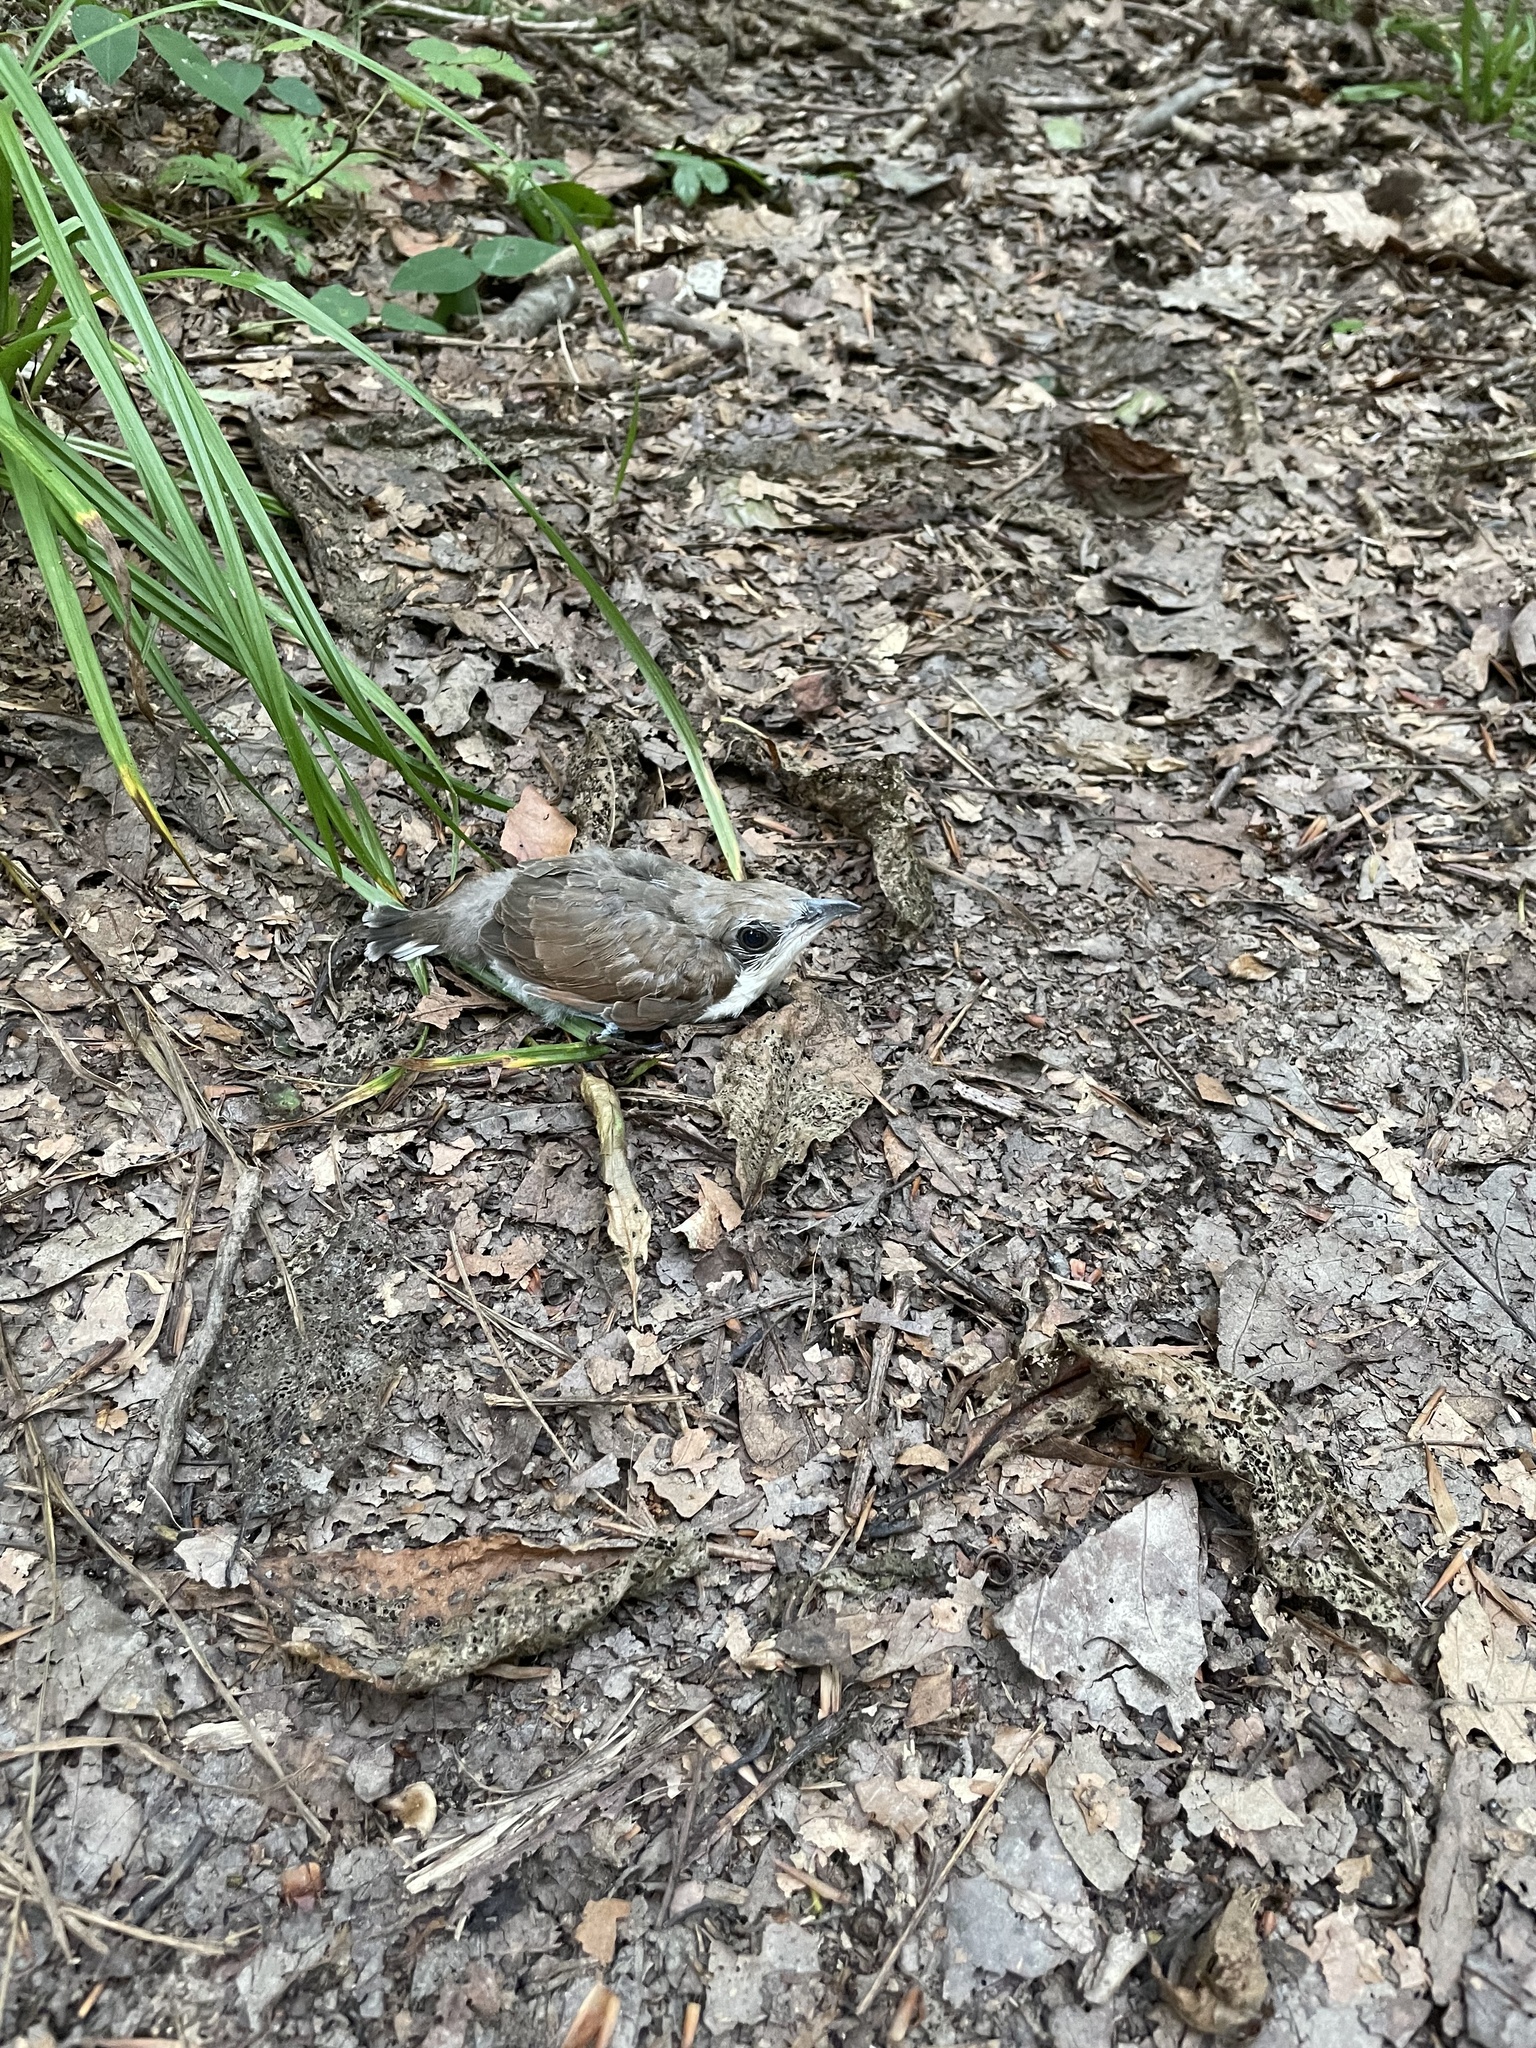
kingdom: Animalia
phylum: Chordata
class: Aves
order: Cuculiformes
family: Cuculidae
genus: Coccyzus
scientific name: Coccyzus americanus
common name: Yellow-billed cuckoo
